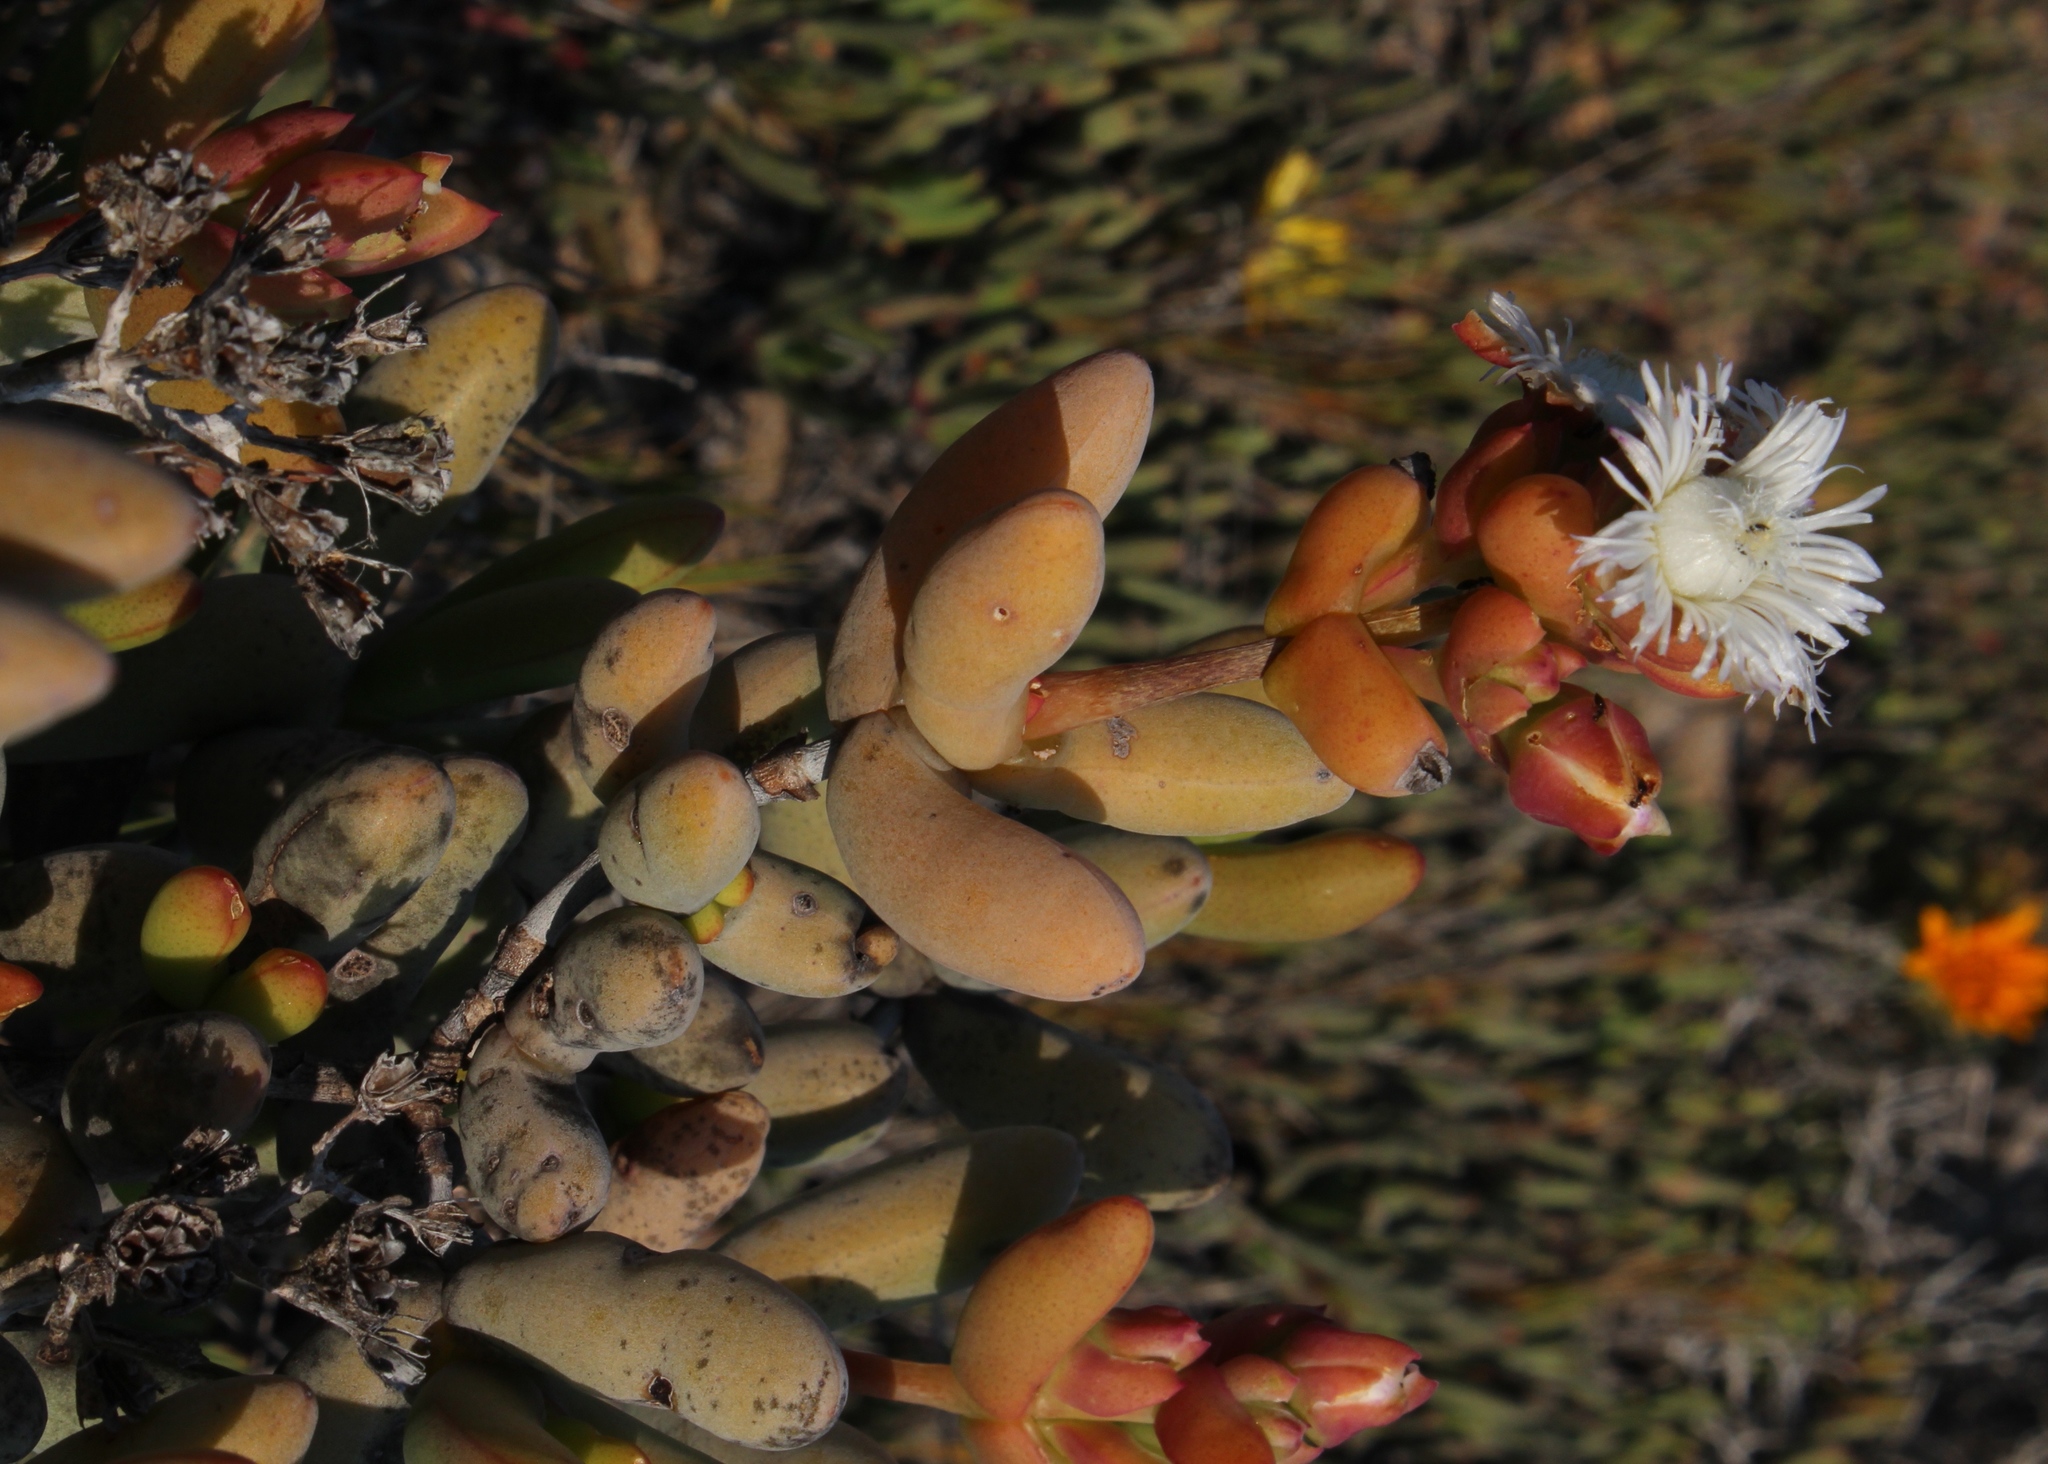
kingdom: Plantae
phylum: Tracheophyta
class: Magnoliopsida
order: Caryophyllales
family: Aizoaceae
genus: Stoeberia
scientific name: Stoeberia beetzii
